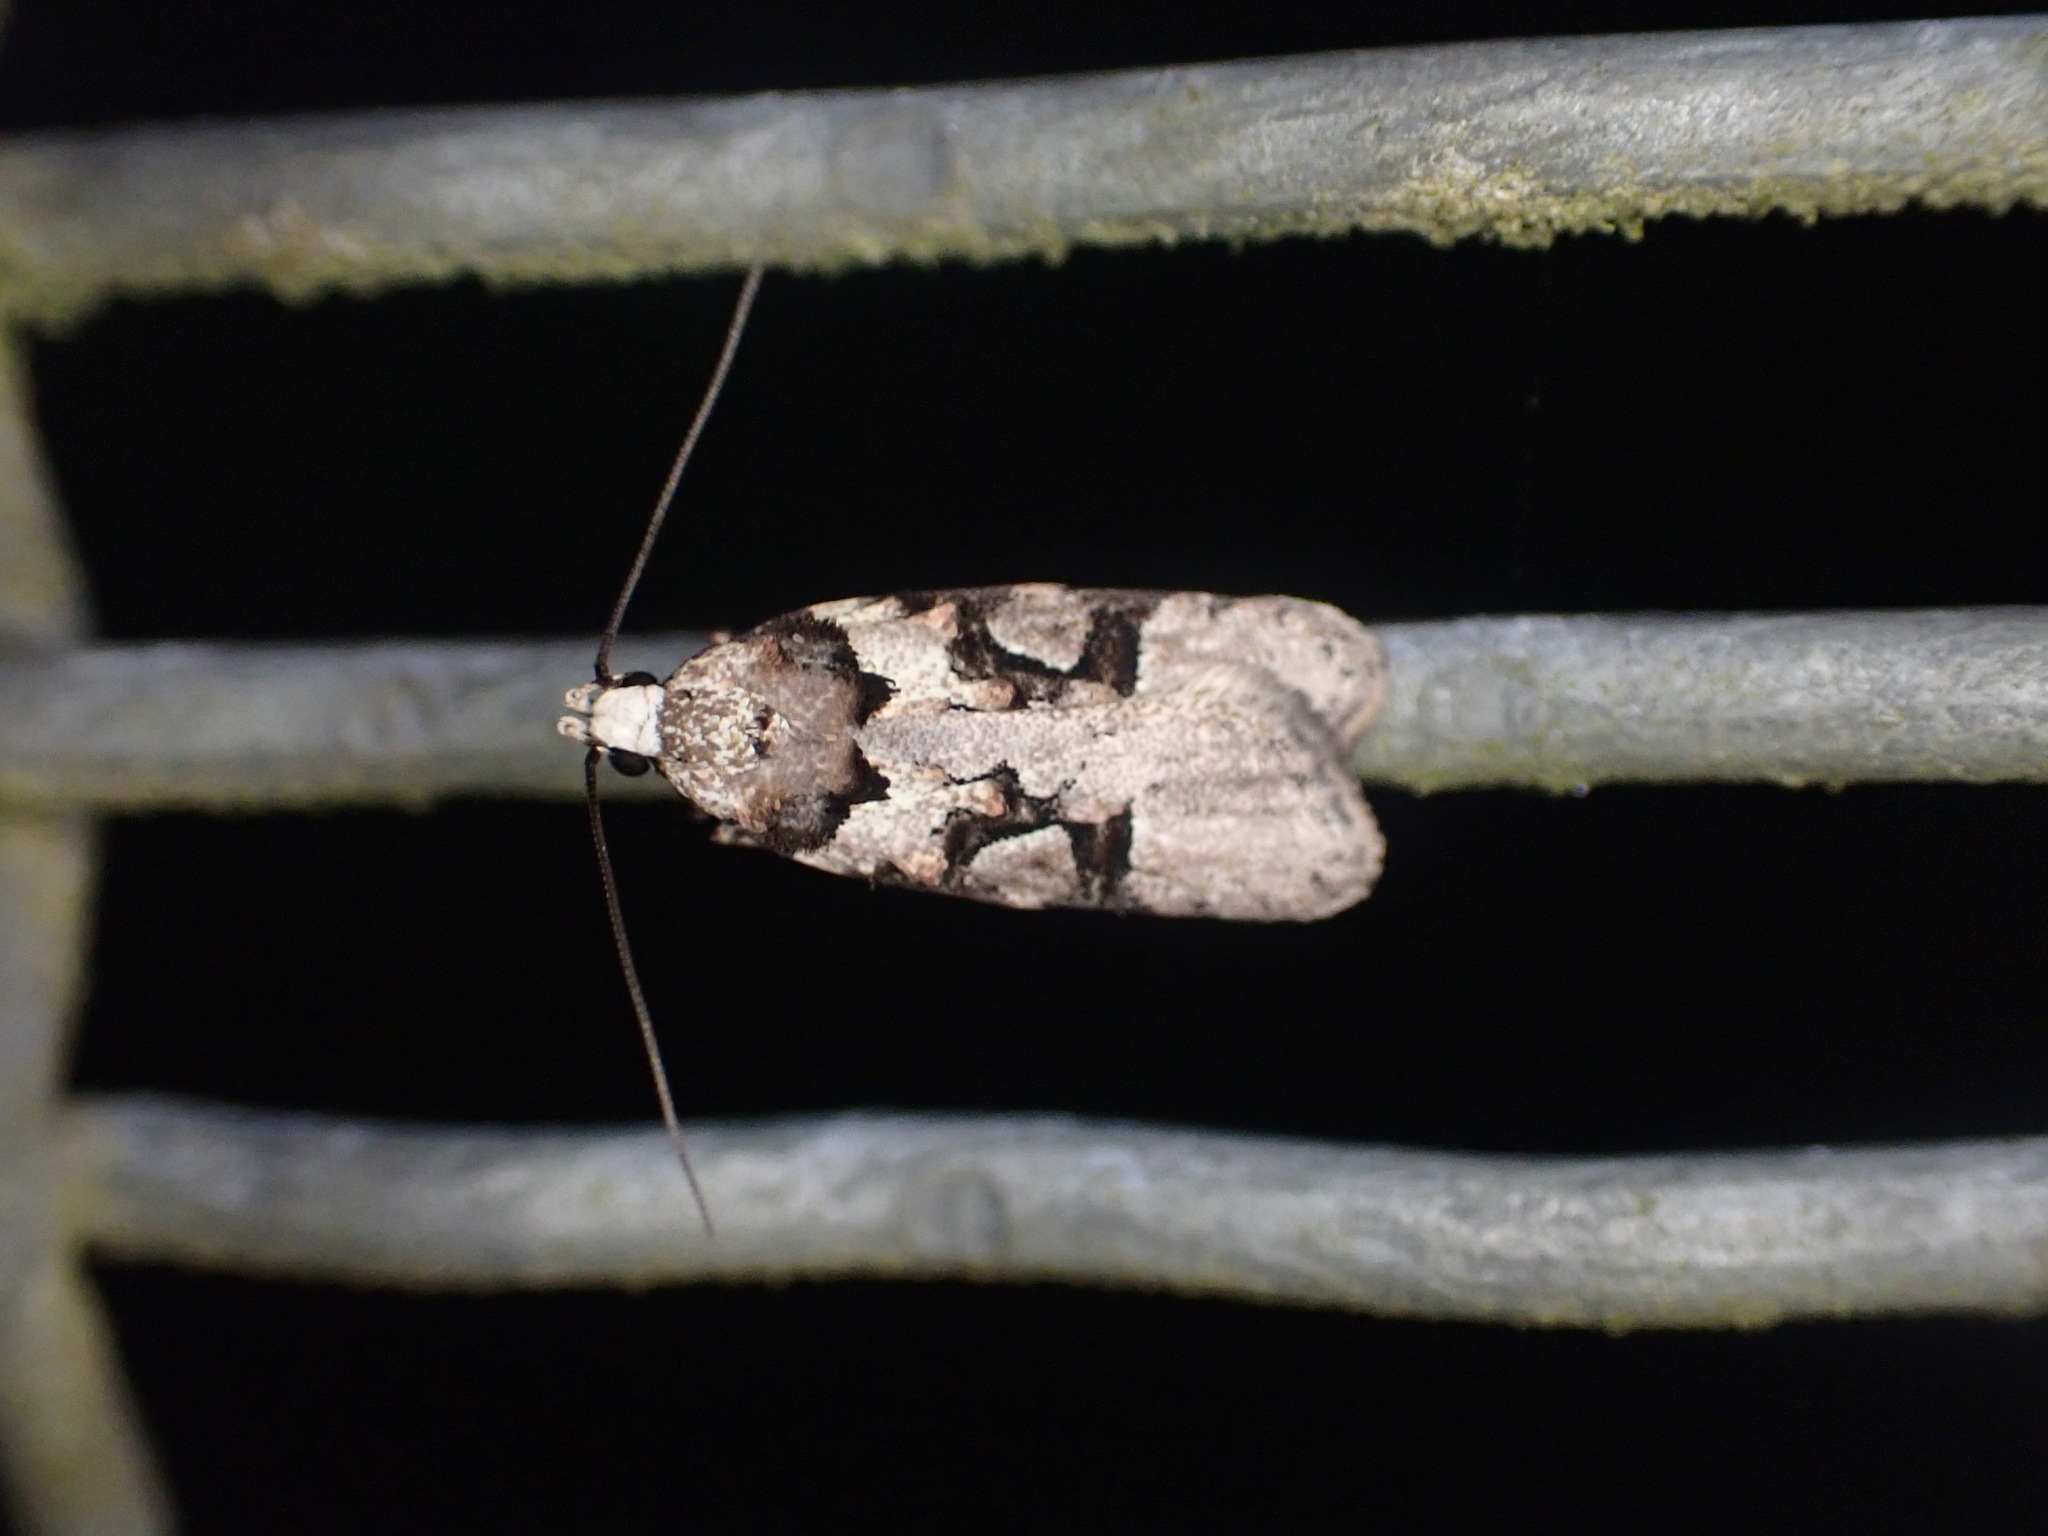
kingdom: Animalia
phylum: Arthropoda
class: Insecta
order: Lepidoptera
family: Oecophoridae
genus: Izatha
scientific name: Izatha epiphanes
